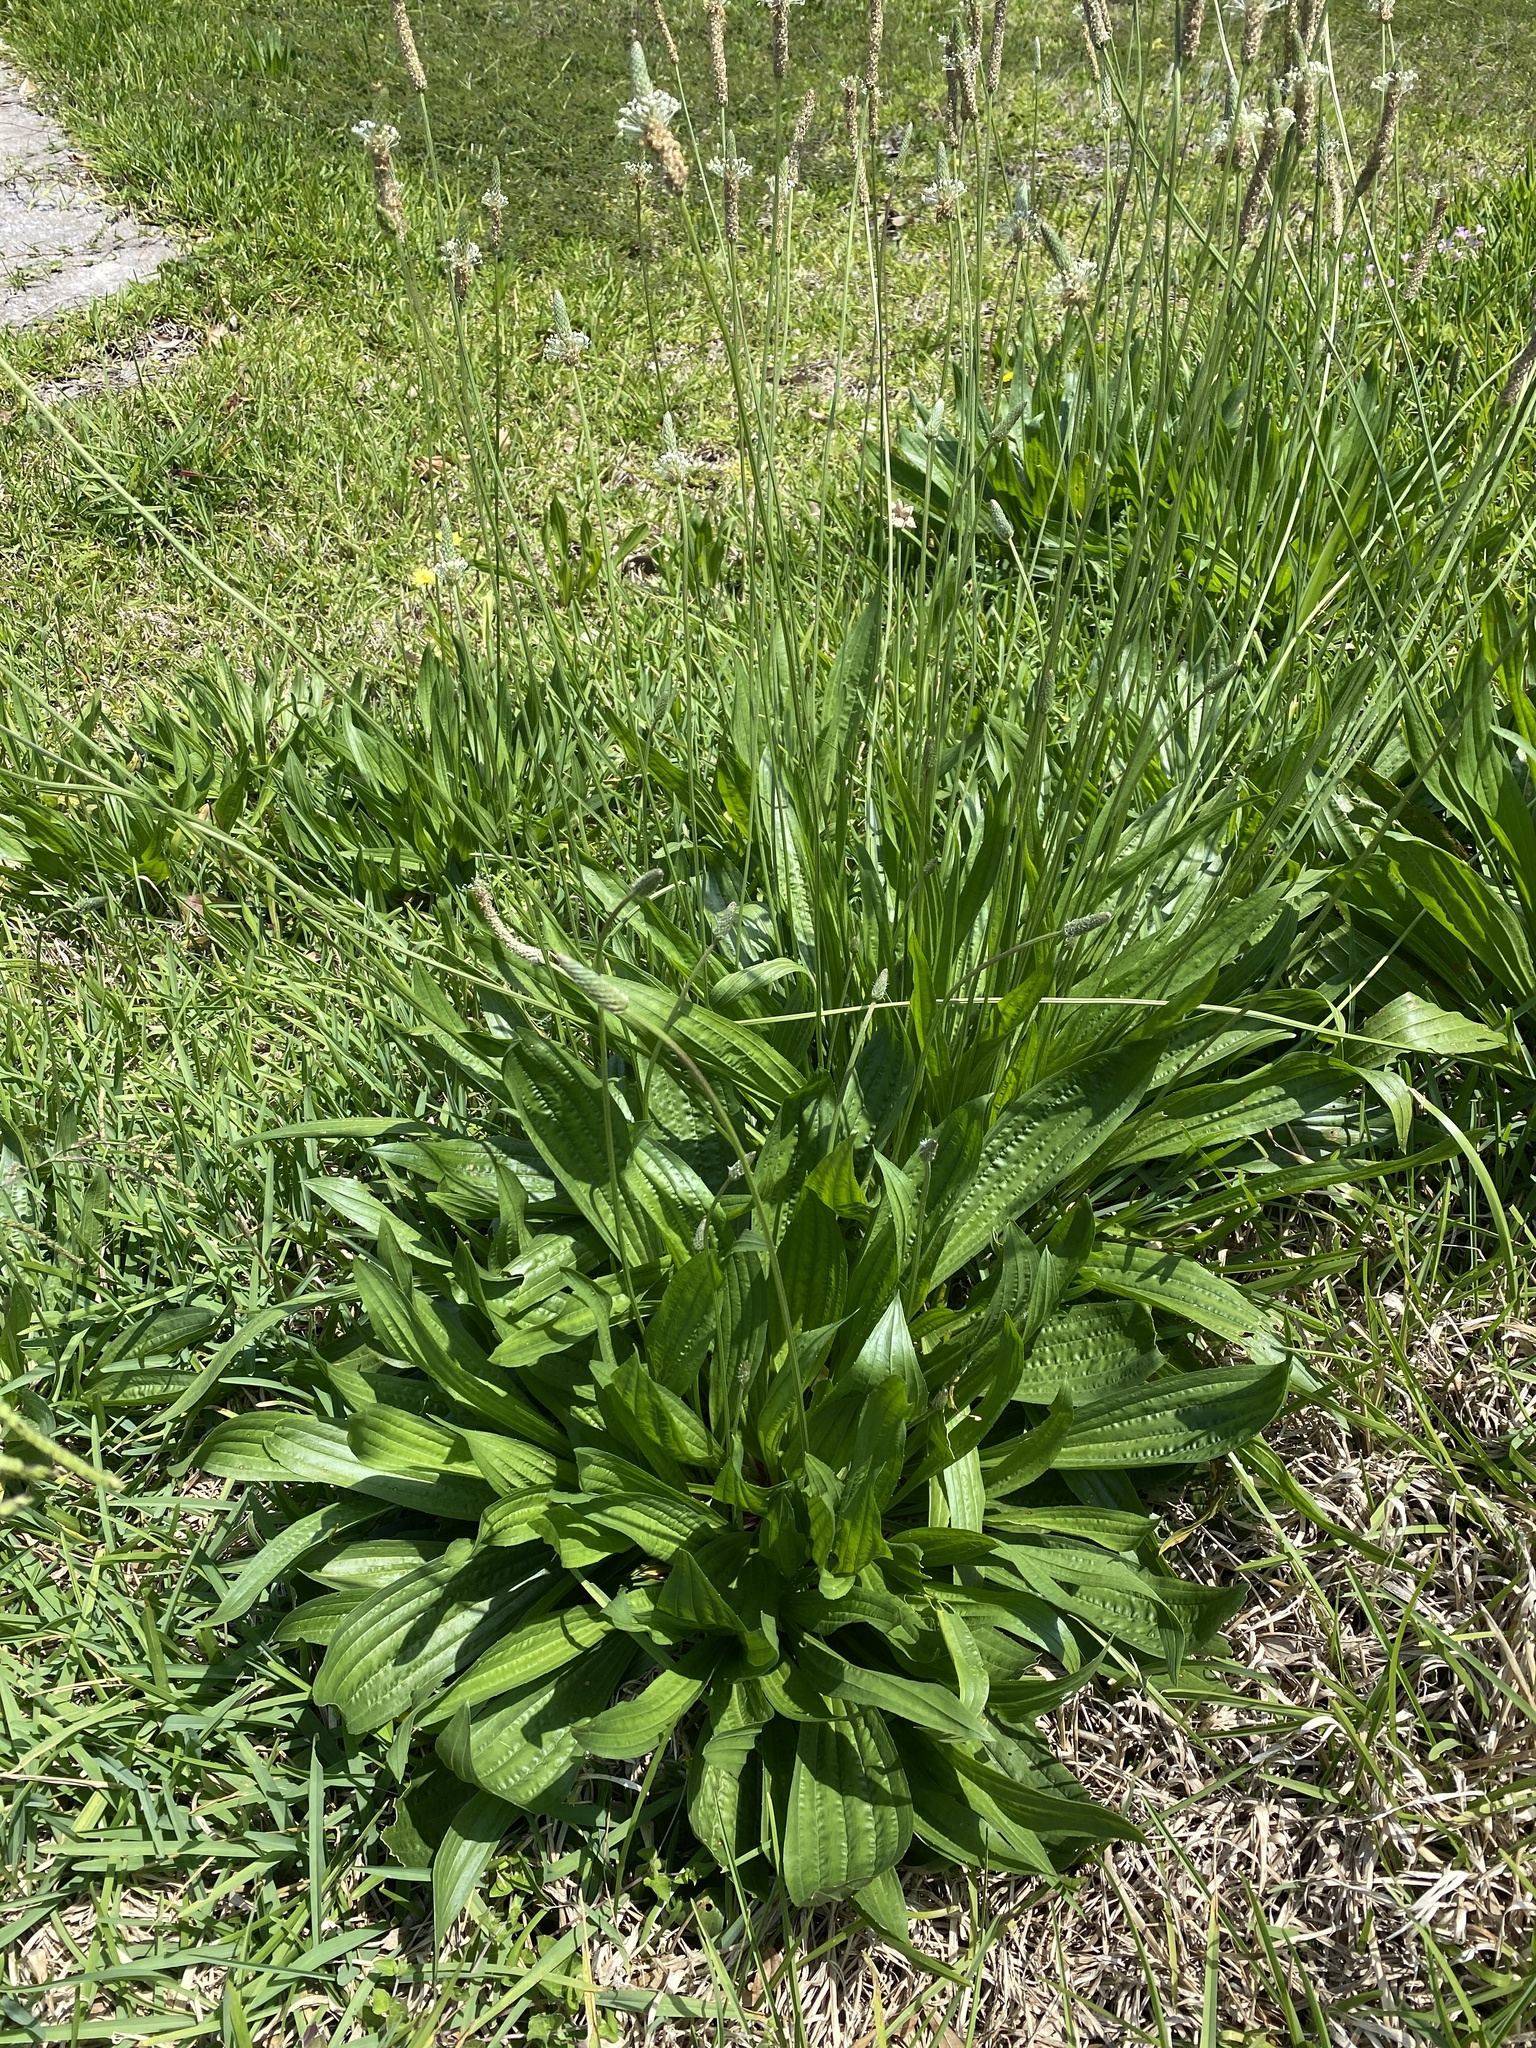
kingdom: Plantae
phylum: Tracheophyta
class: Magnoliopsida
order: Lamiales
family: Plantaginaceae
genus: Plantago
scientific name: Plantago lanceolata
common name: Ribwort plantain
